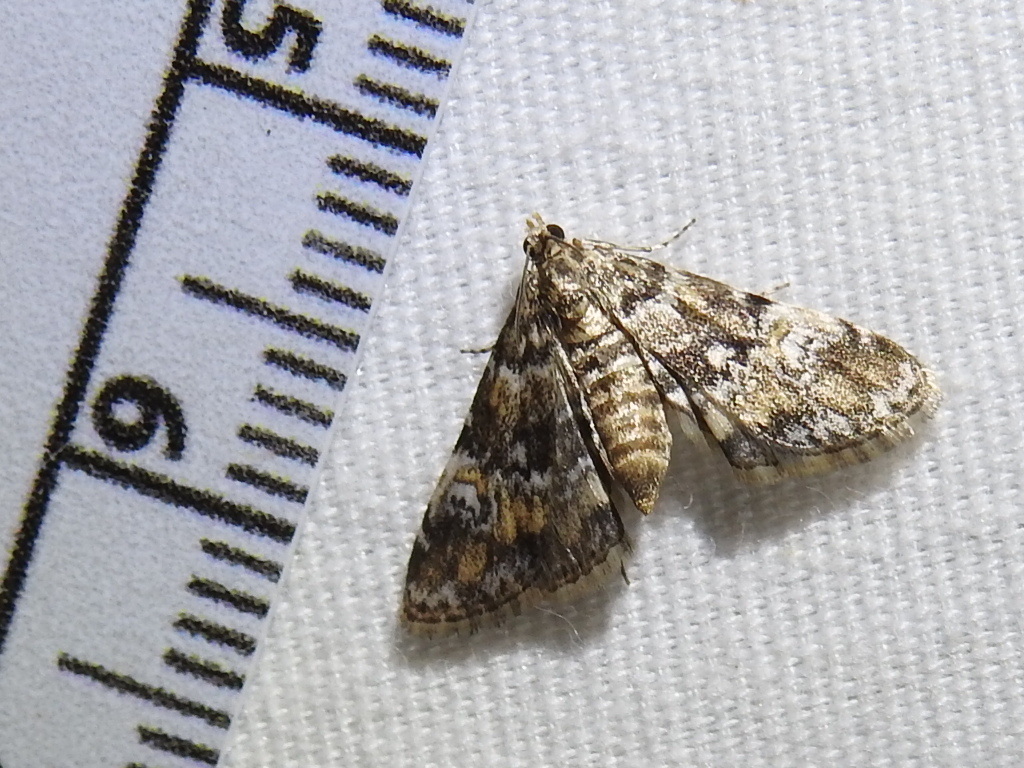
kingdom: Animalia
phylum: Arthropoda
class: Insecta
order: Lepidoptera
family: Crambidae
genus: Elophila
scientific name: Elophila obliteralis
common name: Waterlily leafcutter moth
